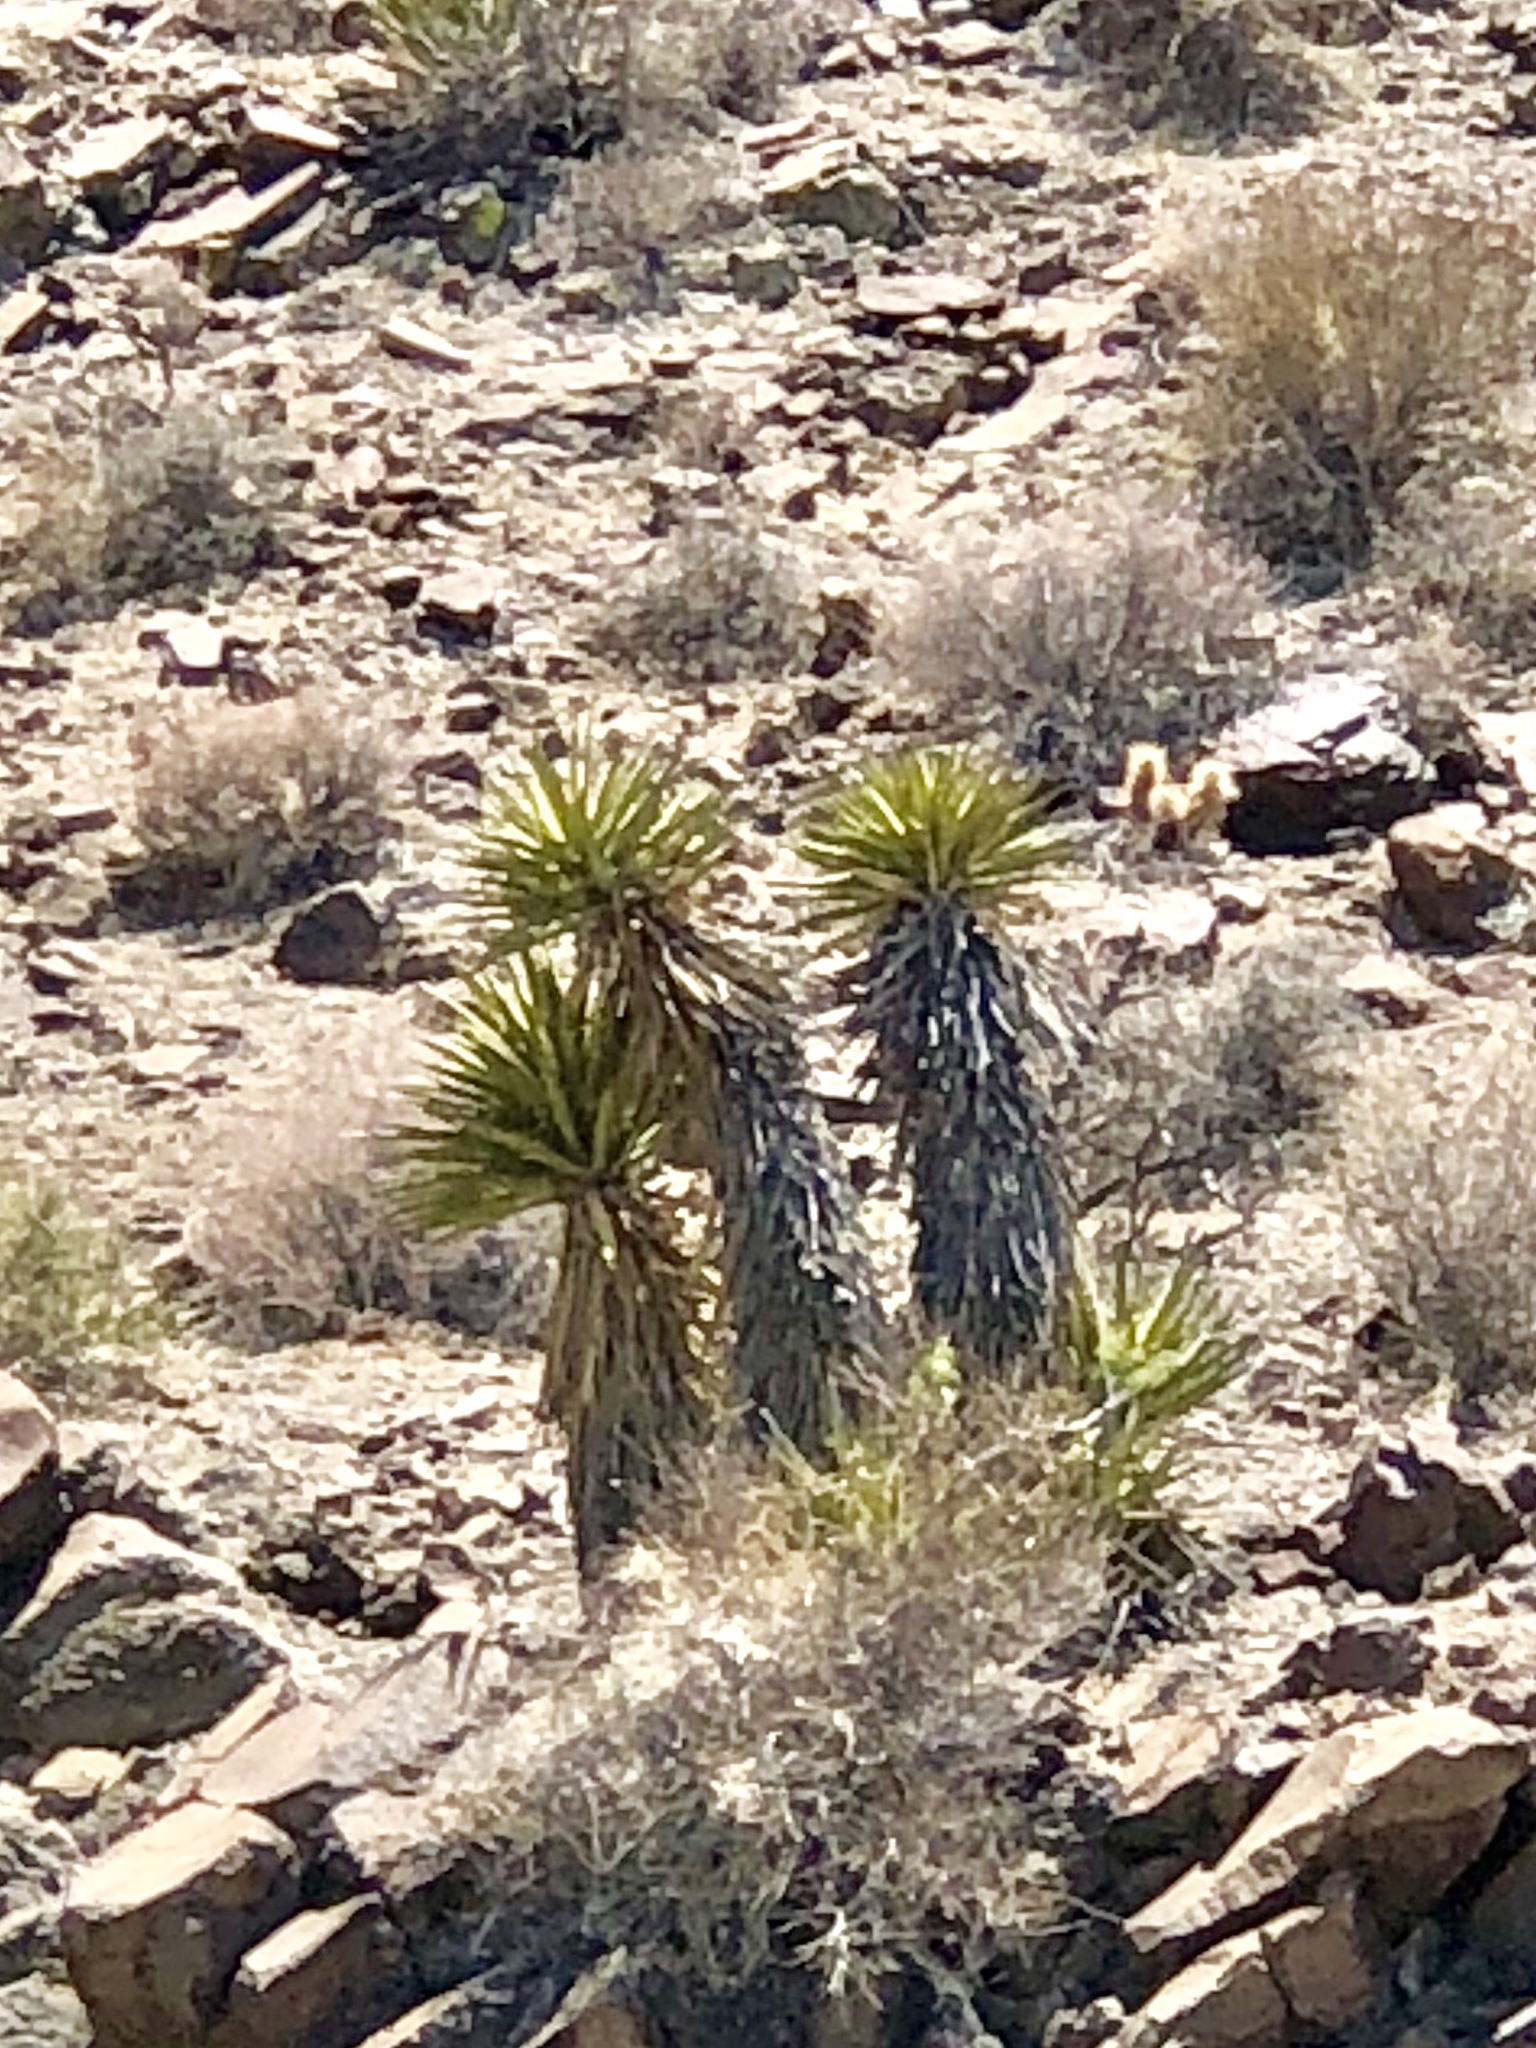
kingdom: Plantae
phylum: Tracheophyta
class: Liliopsida
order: Asparagales
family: Asparagaceae
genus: Yucca
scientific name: Yucca schidigera
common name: Mojave yucca
